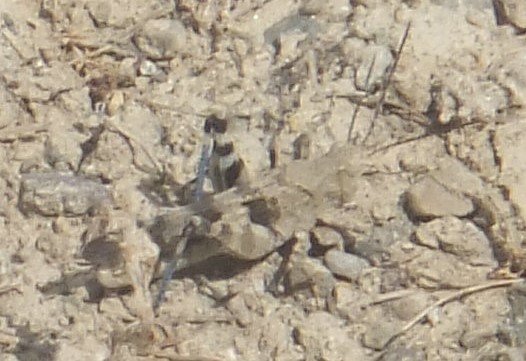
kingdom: Animalia
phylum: Arthropoda
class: Insecta
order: Orthoptera
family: Acrididae
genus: Trimerotropis
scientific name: Trimerotropis fontana
